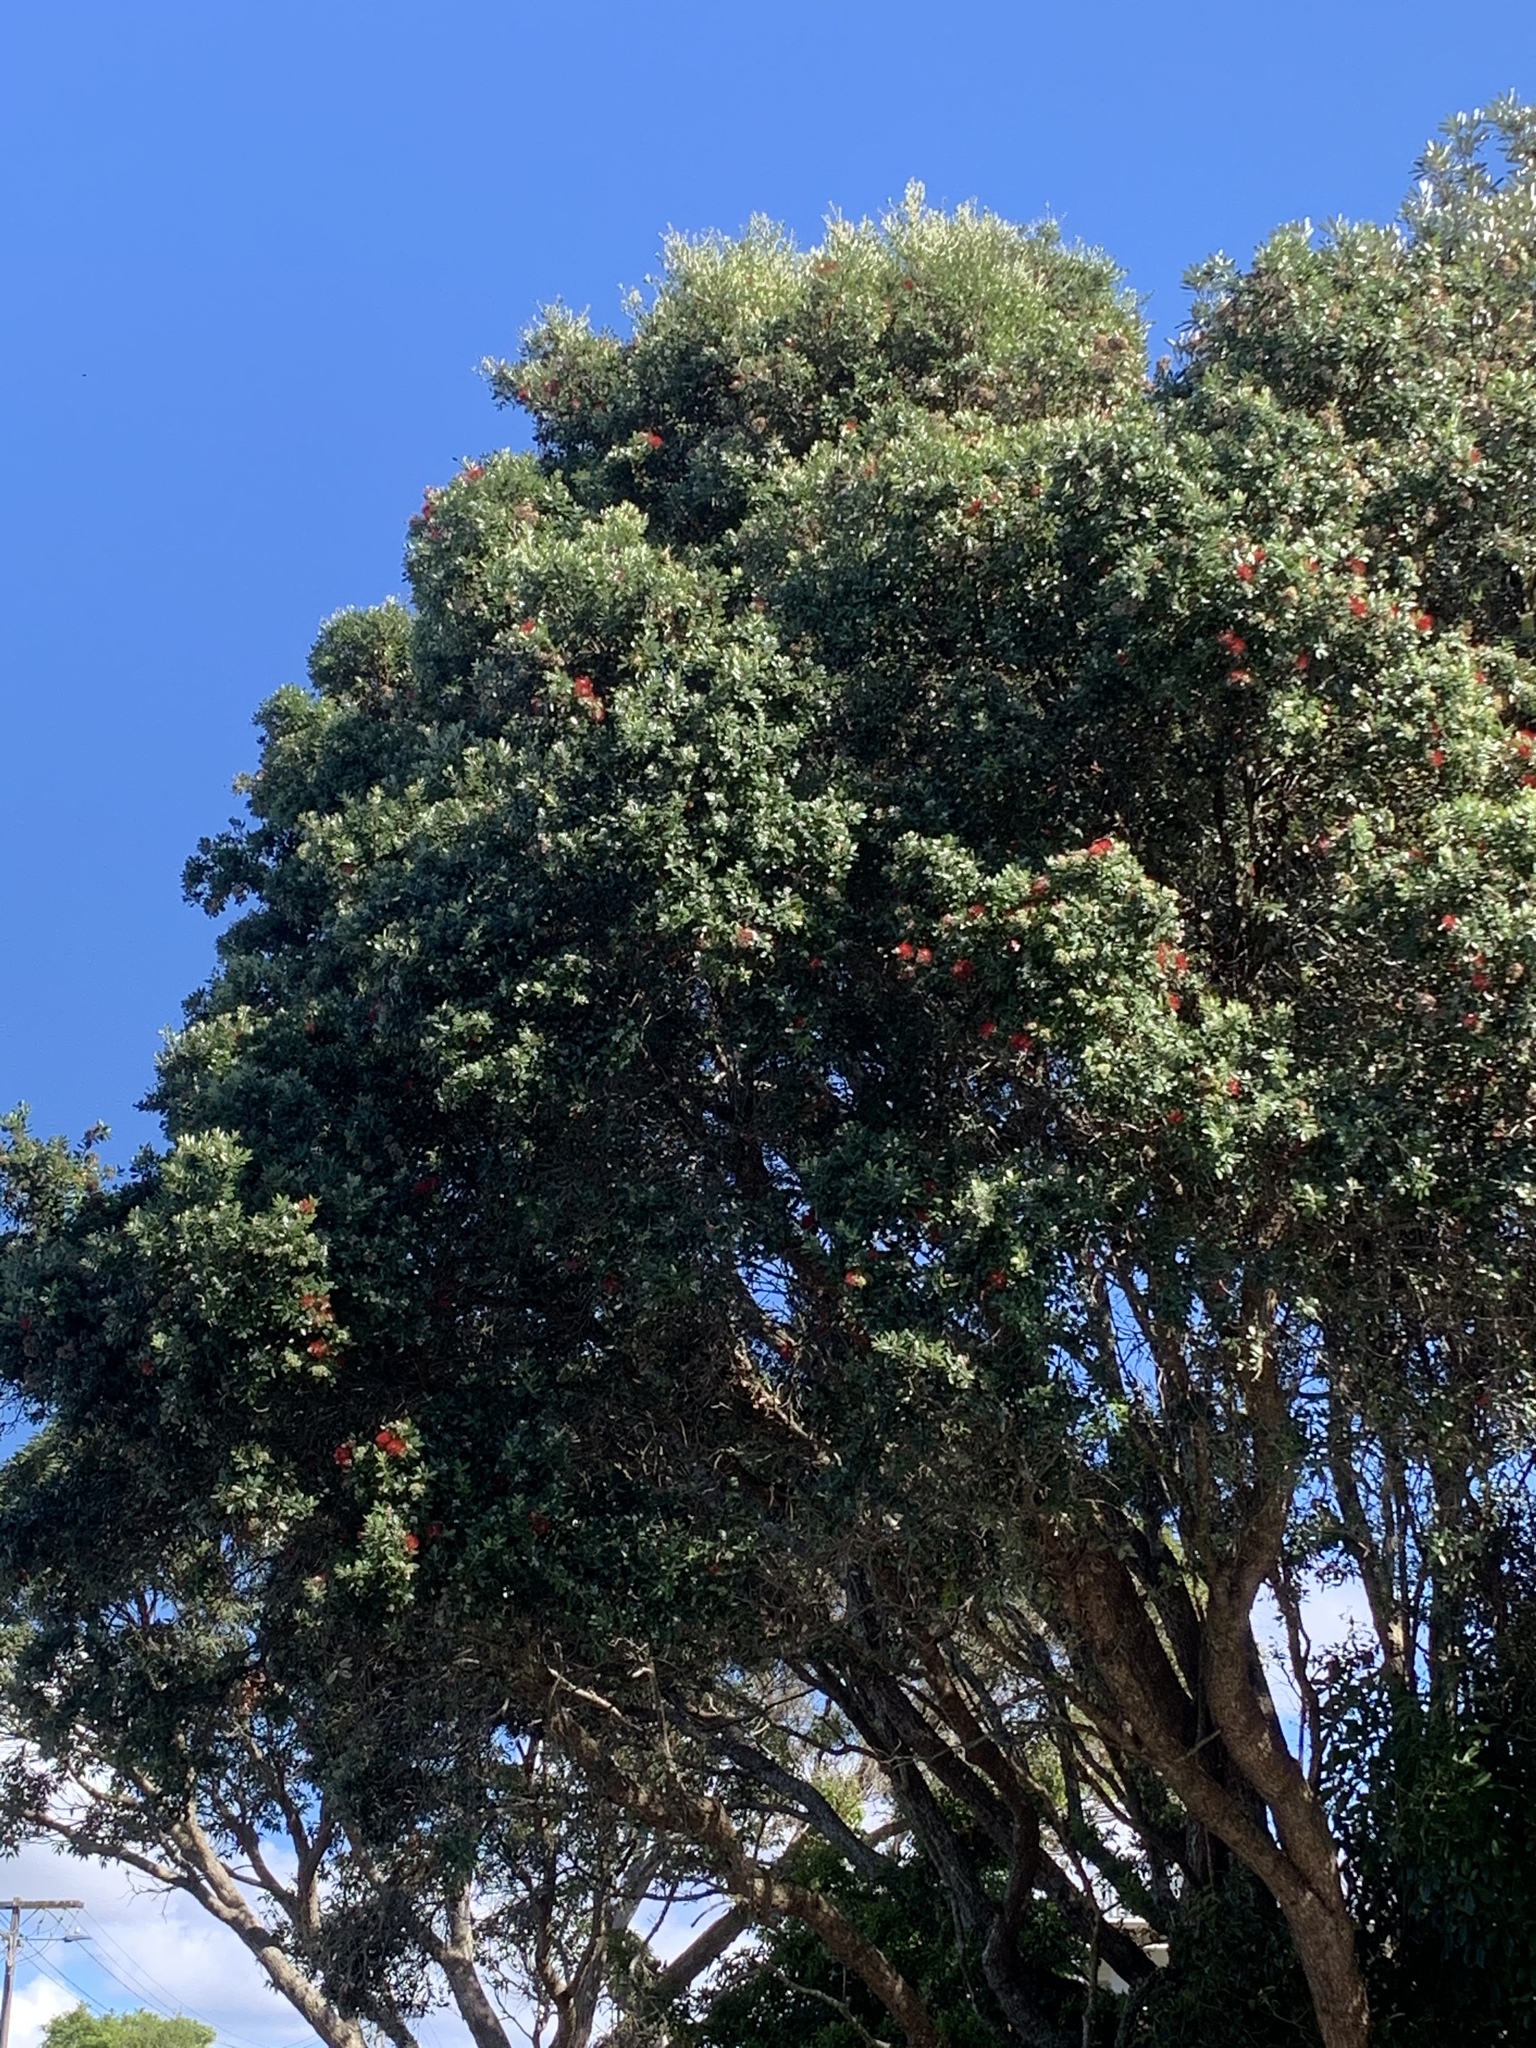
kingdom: Plantae
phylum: Tracheophyta
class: Magnoliopsida
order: Myrtales
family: Myrtaceae
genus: Metrosideros
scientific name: Metrosideros excelsa
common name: New zealand christmastree
